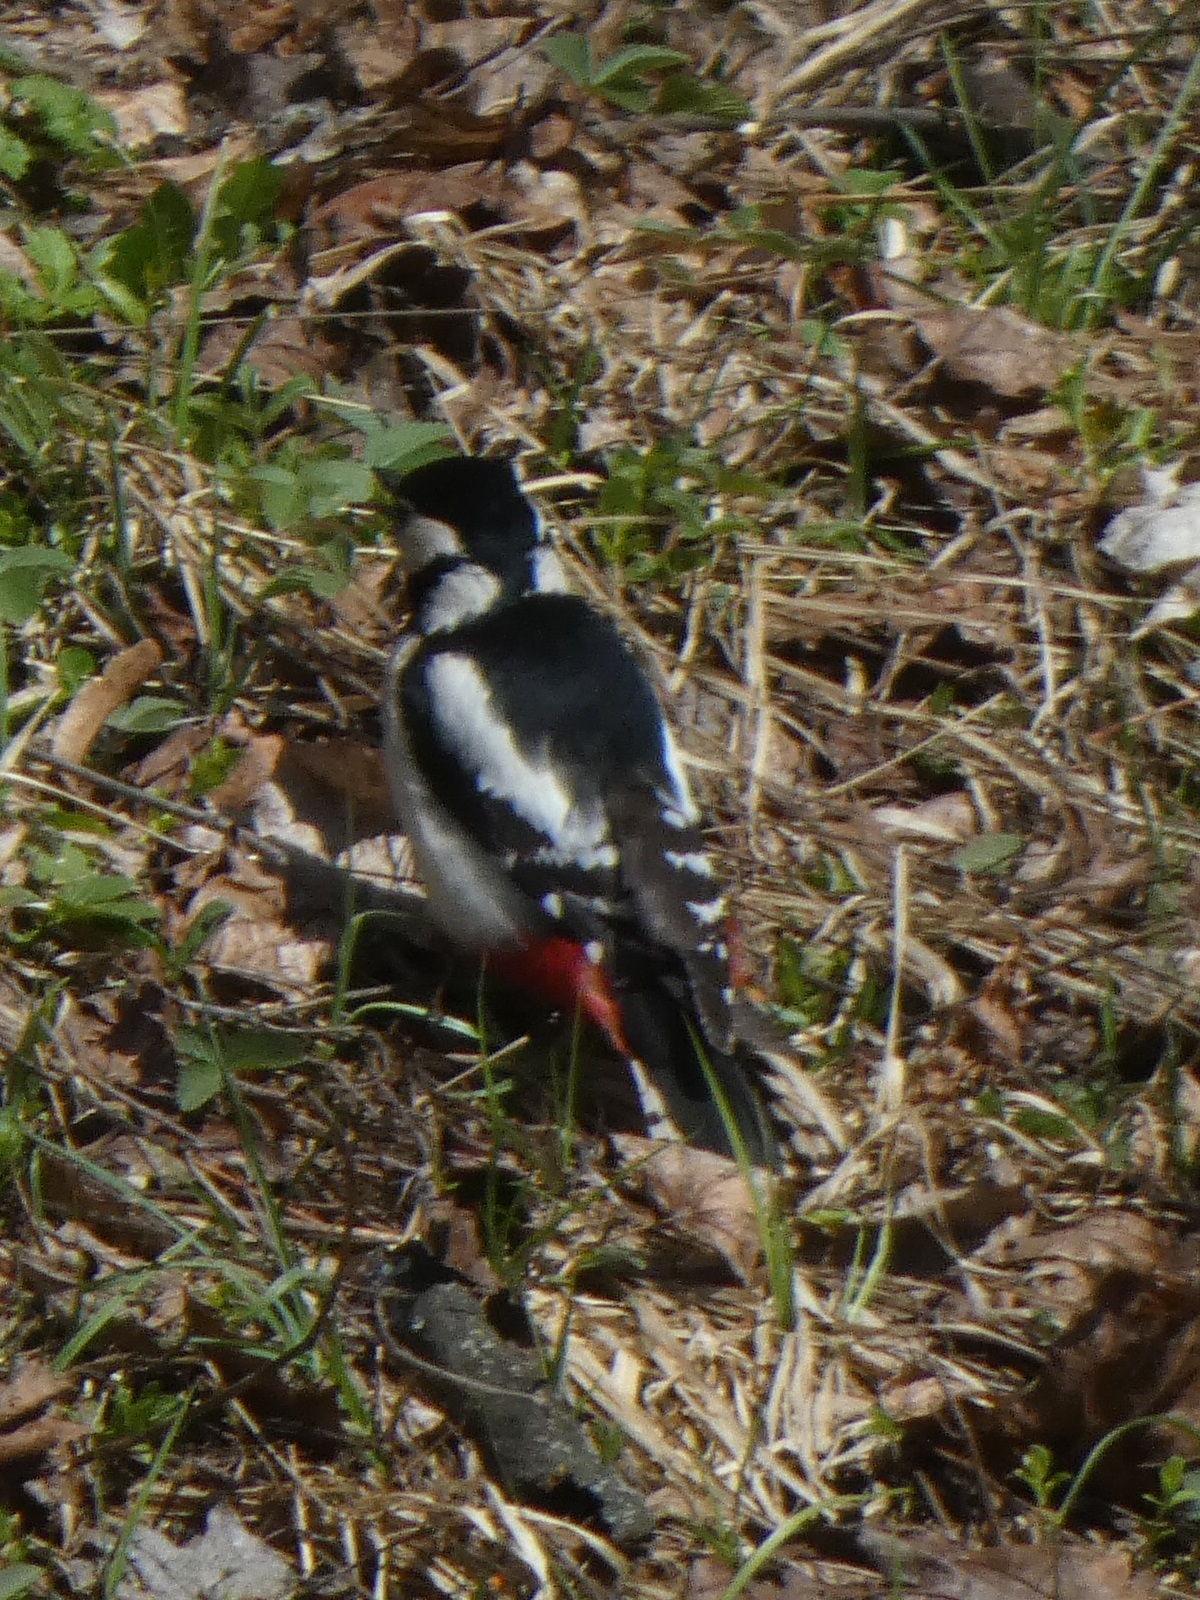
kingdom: Animalia
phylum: Chordata
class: Aves
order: Piciformes
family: Picidae
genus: Dendrocopos
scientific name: Dendrocopos major
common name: Great spotted woodpecker
